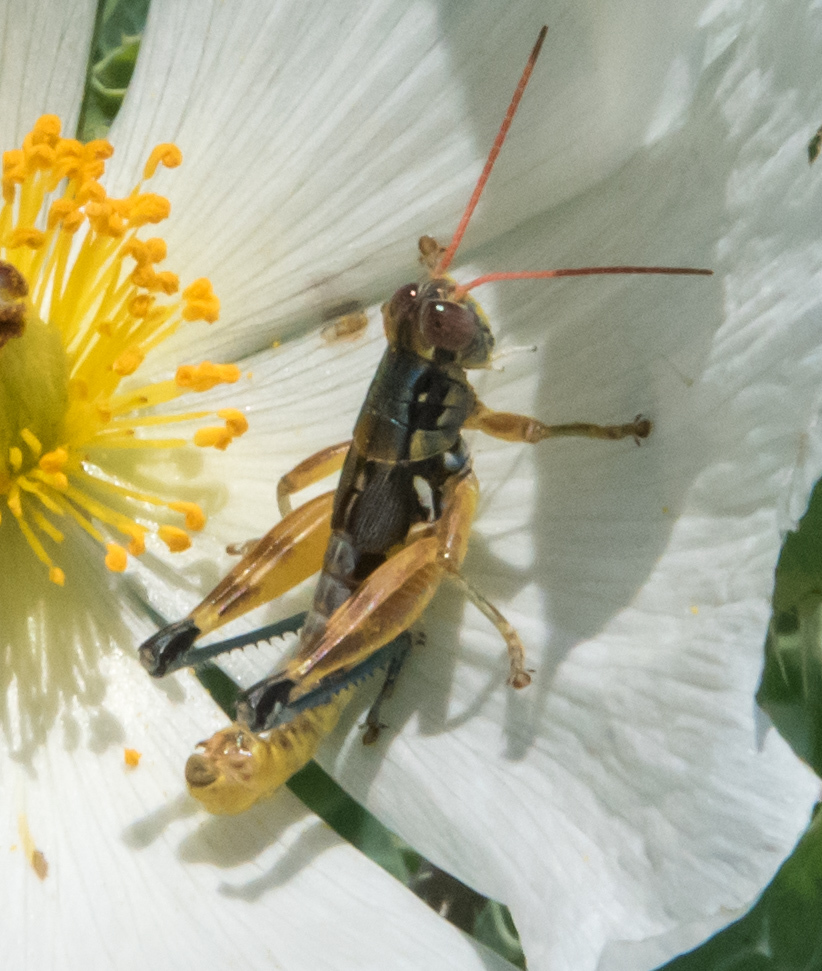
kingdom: Animalia
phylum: Arthropoda
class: Insecta
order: Orthoptera
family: Acrididae
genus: Melanoplus
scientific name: Melanoplus aridus
